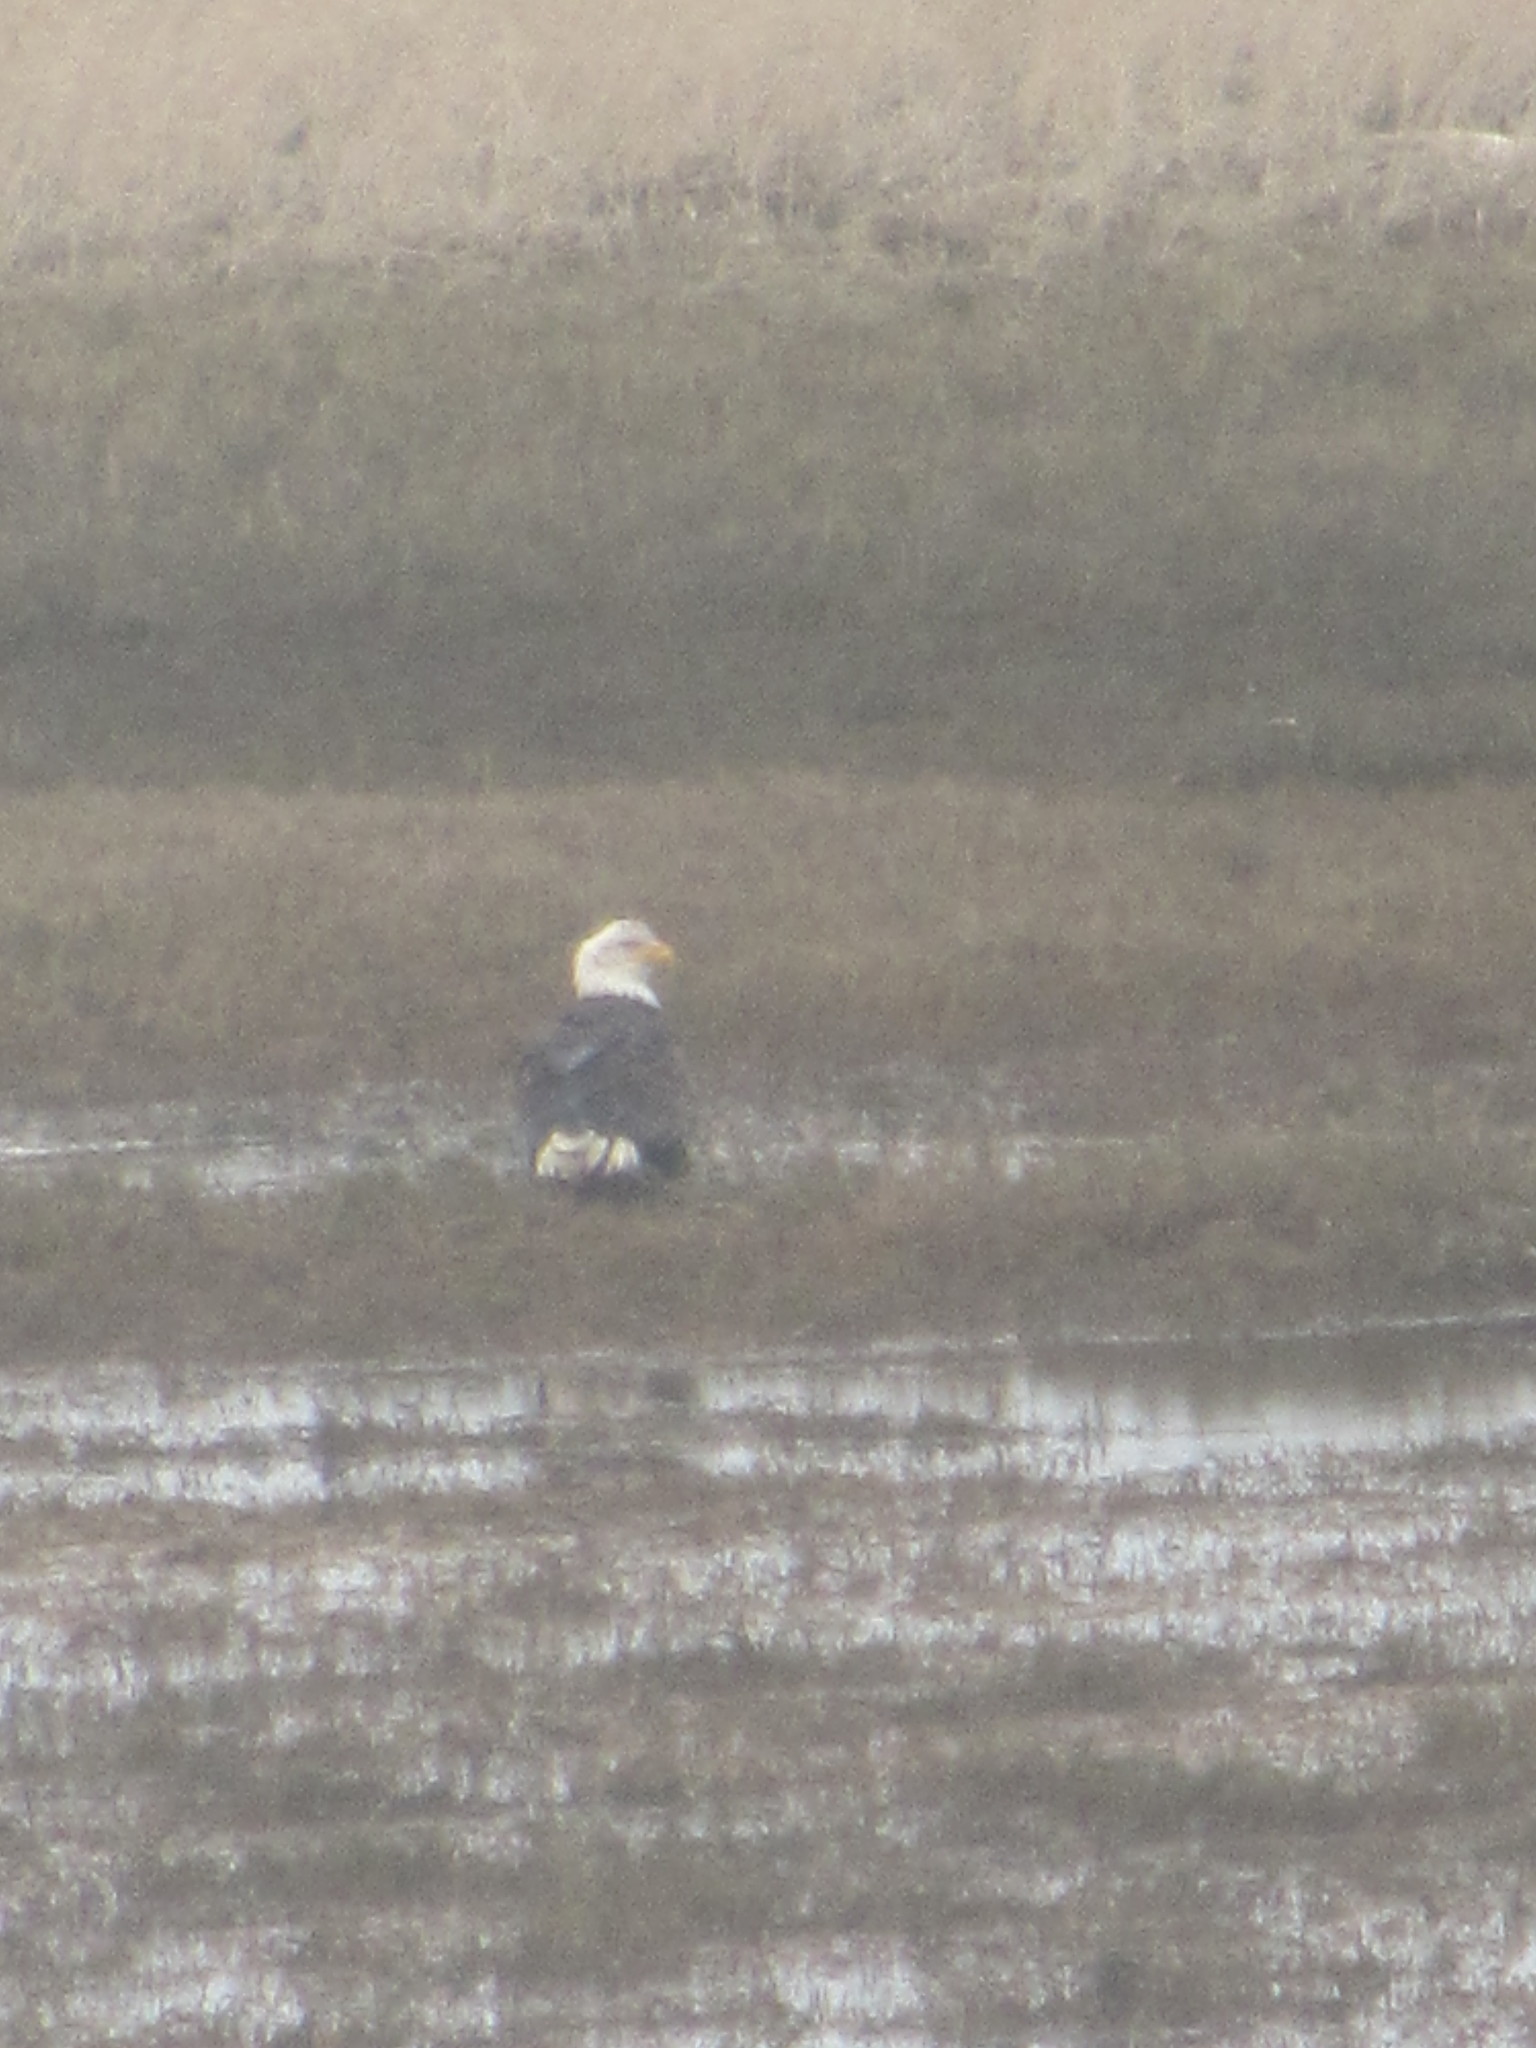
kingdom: Animalia
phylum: Chordata
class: Aves
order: Accipitriformes
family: Accipitridae
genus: Haliaeetus
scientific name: Haliaeetus leucocephalus
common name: Bald eagle
